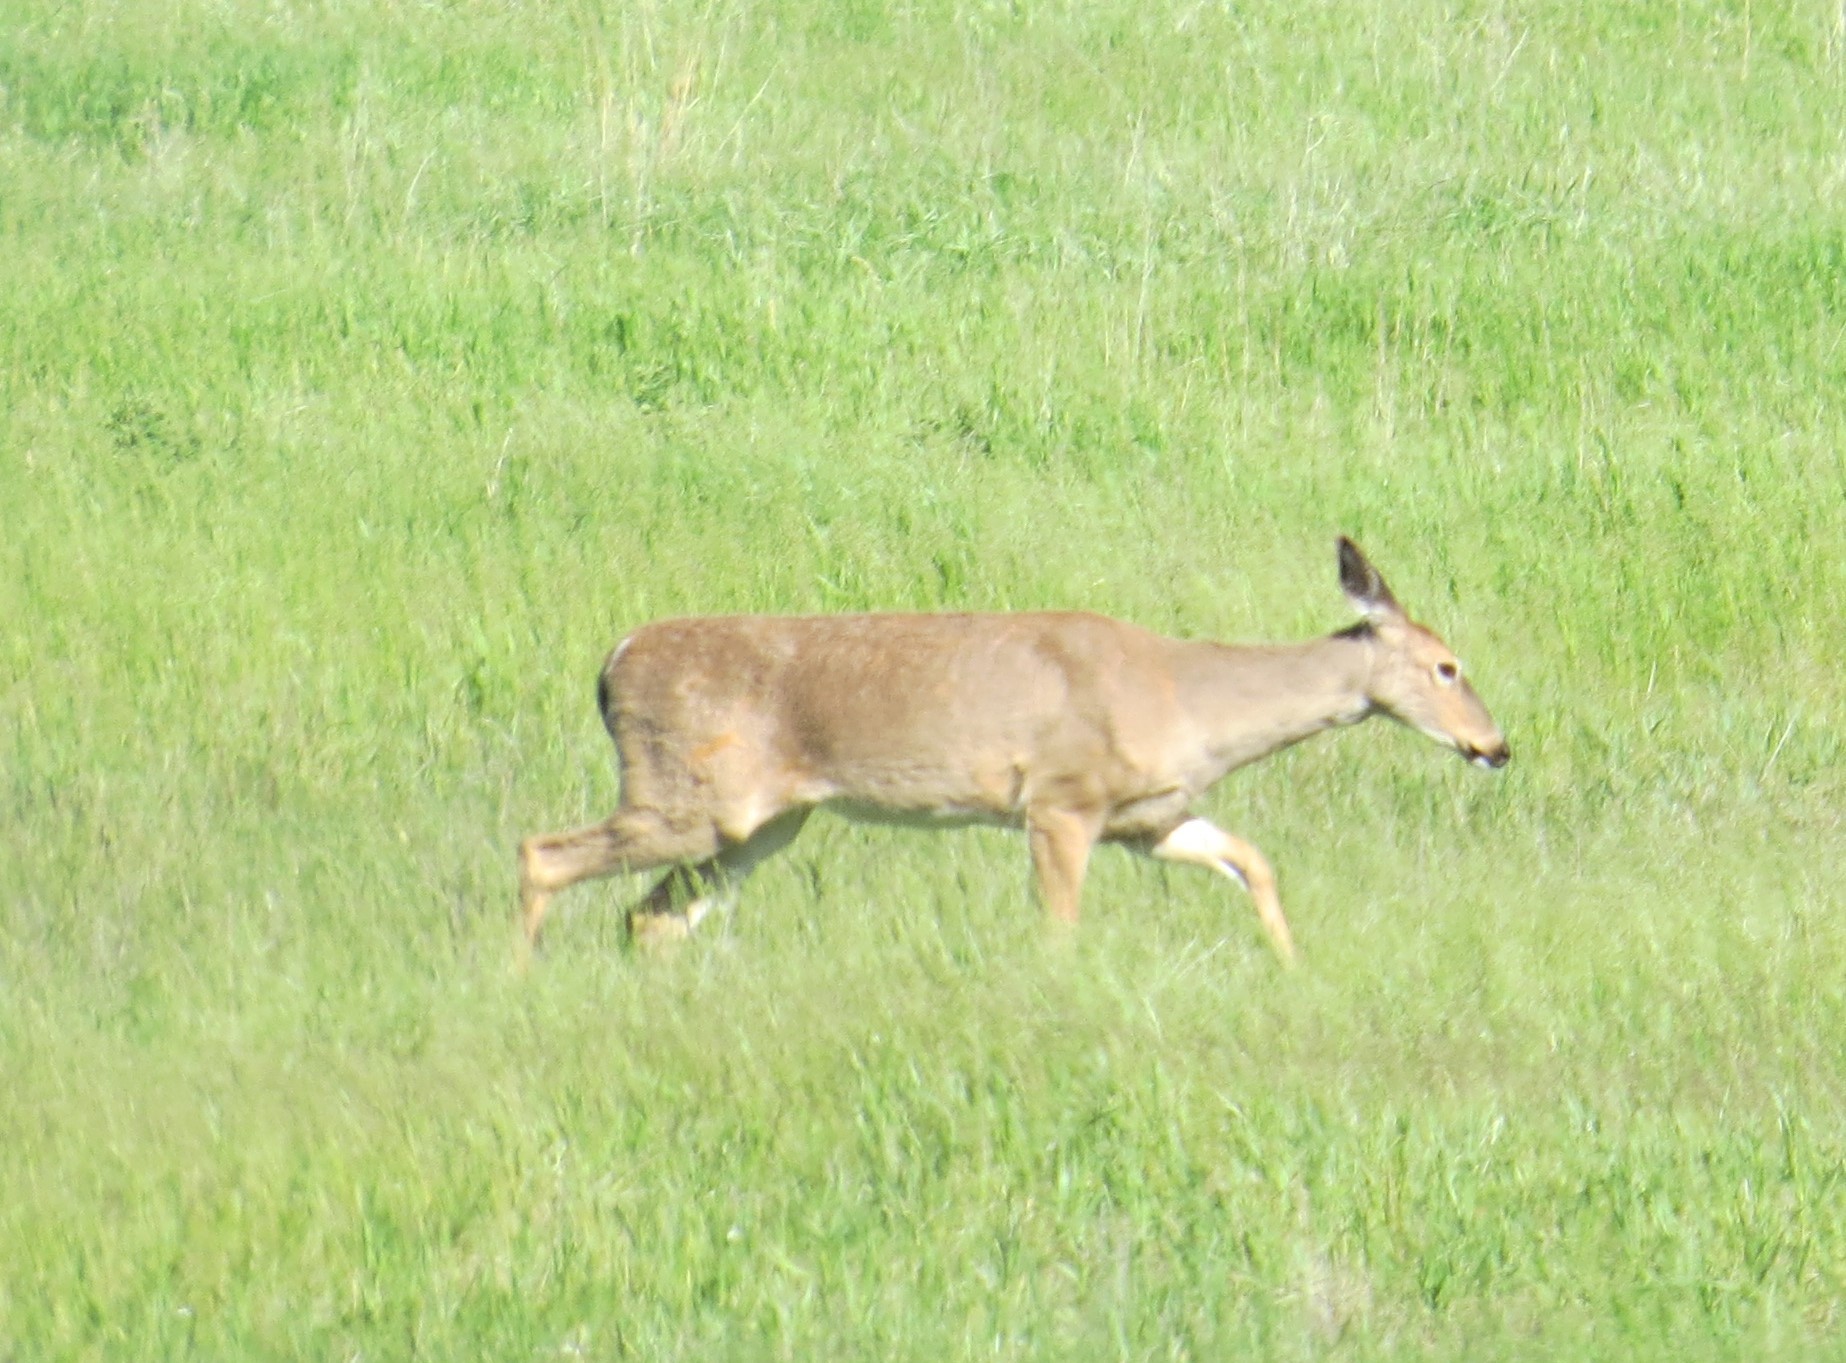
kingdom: Animalia
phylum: Chordata
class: Mammalia
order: Artiodactyla
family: Cervidae
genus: Odocoileus
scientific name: Odocoileus virginianus
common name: White-tailed deer
